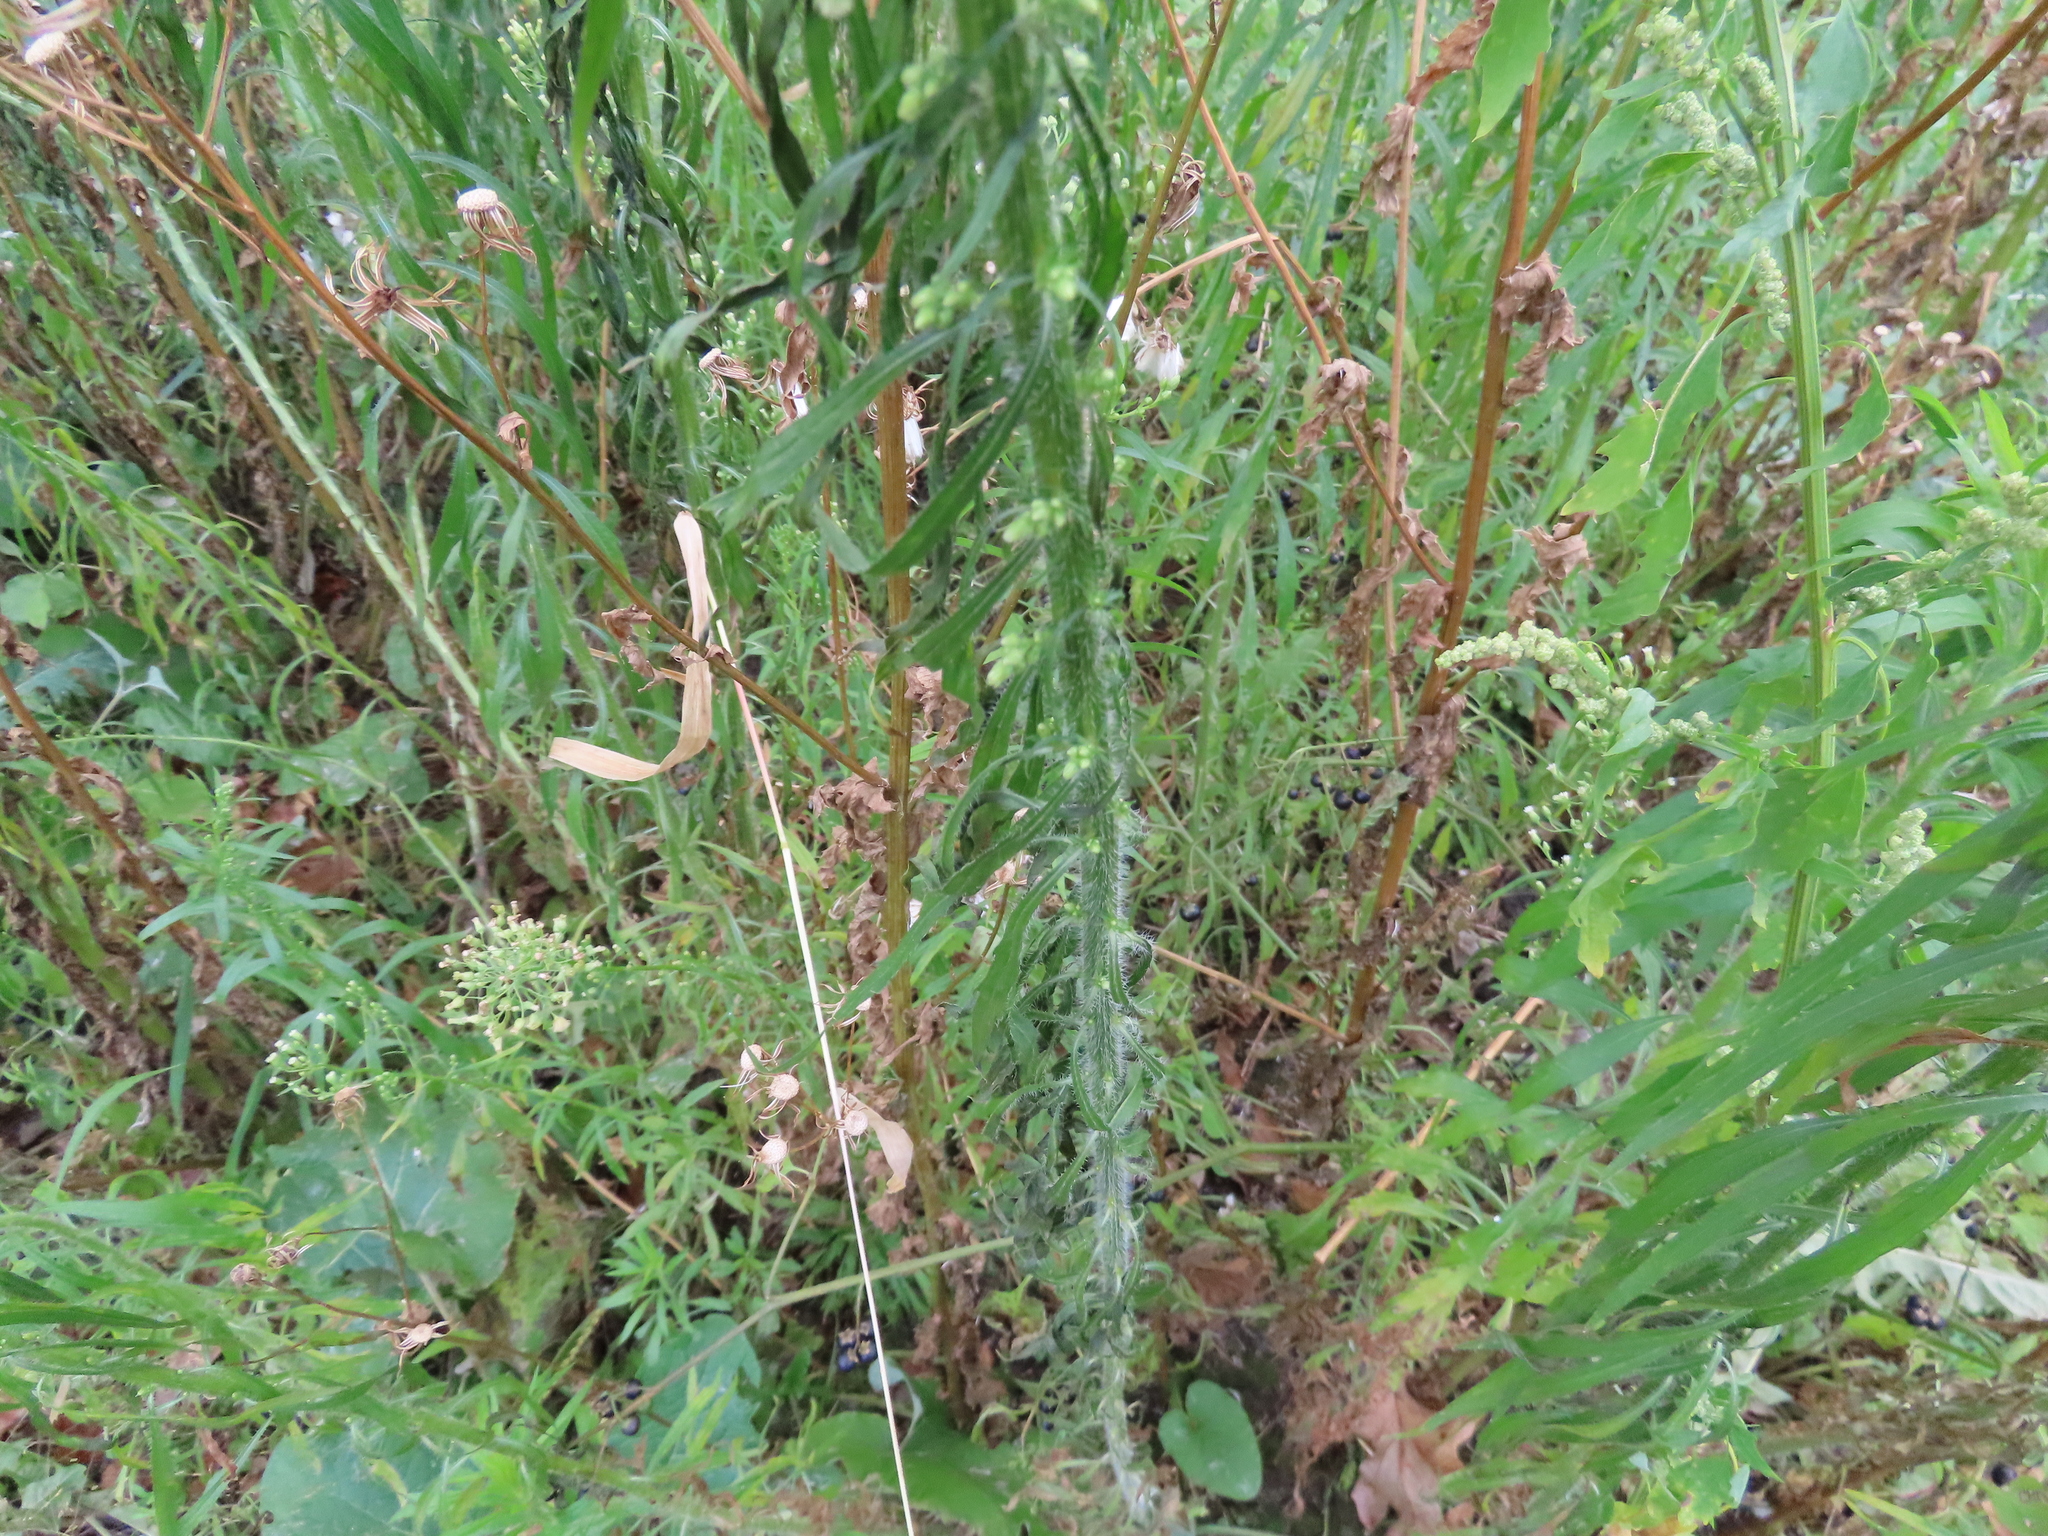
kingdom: Plantae
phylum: Tracheophyta
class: Magnoliopsida
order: Asterales
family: Asteraceae
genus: Erigeron
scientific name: Erigeron canadensis
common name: Canadian fleabane
